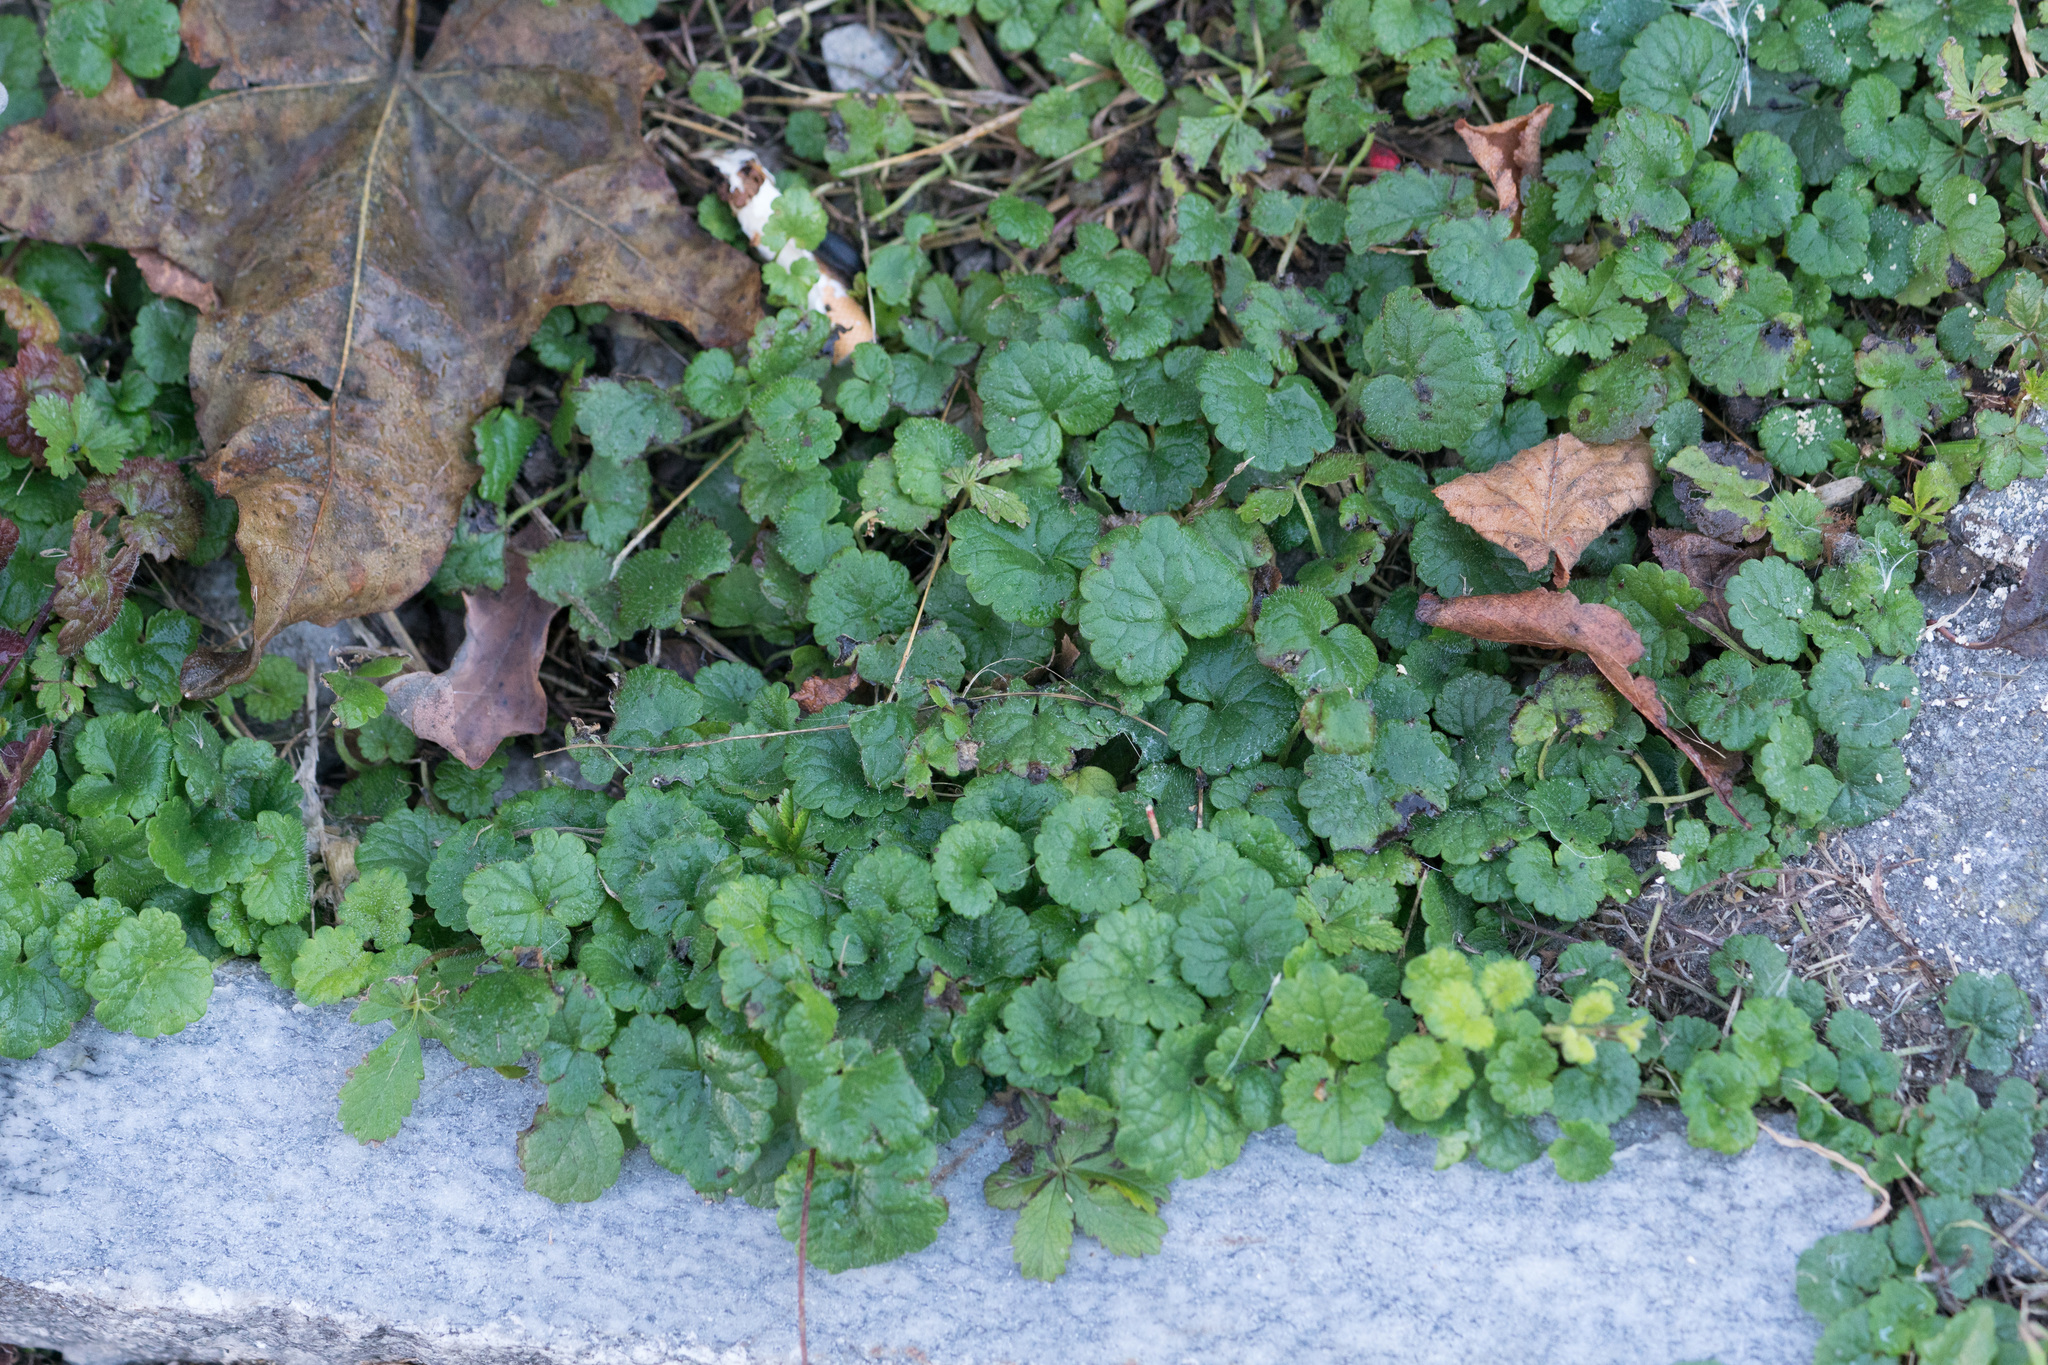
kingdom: Plantae
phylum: Tracheophyta
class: Magnoliopsida
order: Lamiales
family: Lamiaceae
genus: Glechoma
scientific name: Glechoma hederacea
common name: Ground ivy
